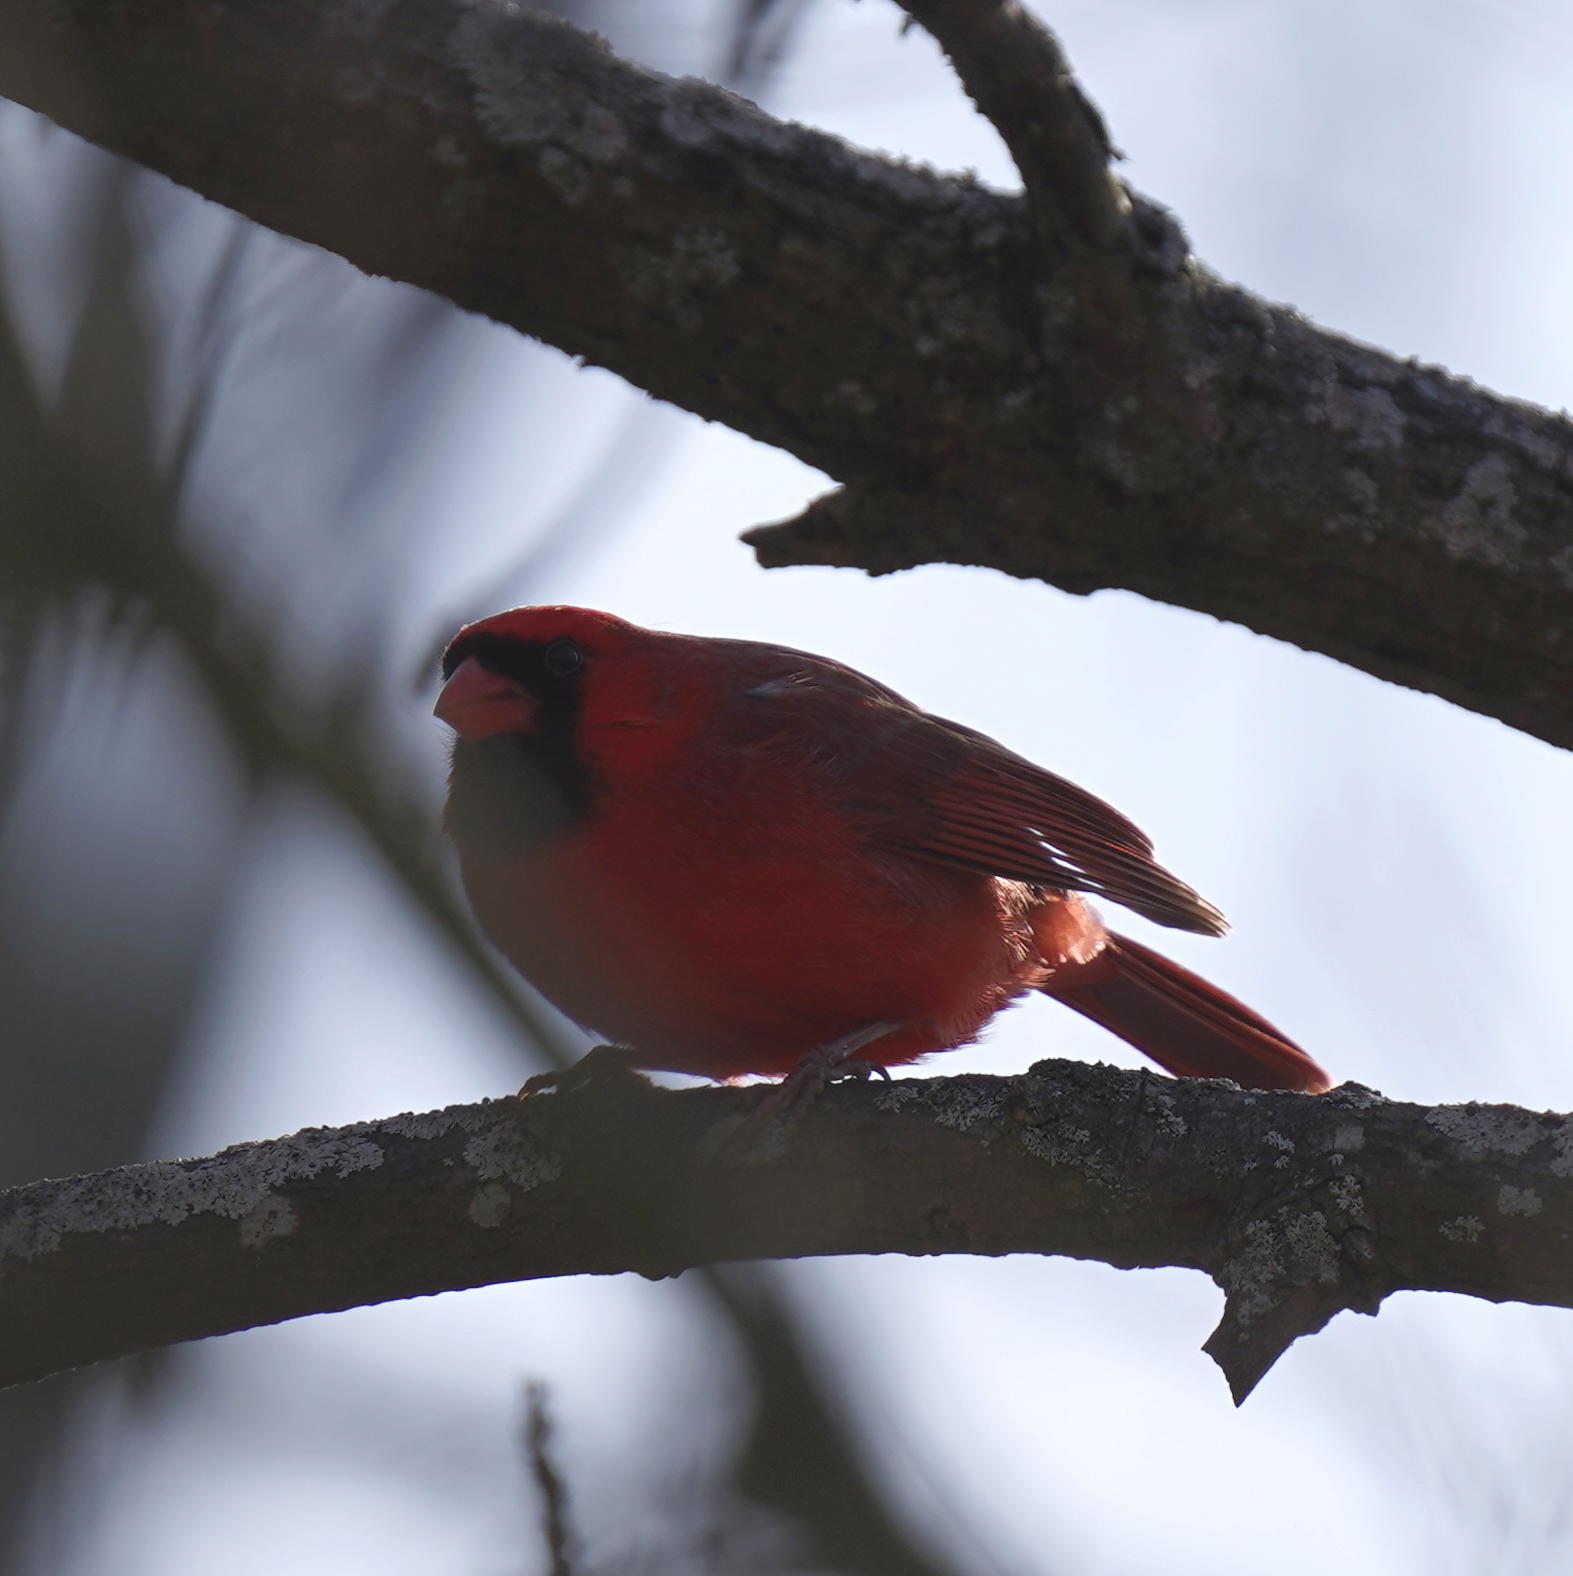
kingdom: Animalia
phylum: Chordata
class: Aves
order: Passeriformes
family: Cardinalidae
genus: Cardinalis
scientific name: Cardinalis cardinalis
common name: Northern cardinal
